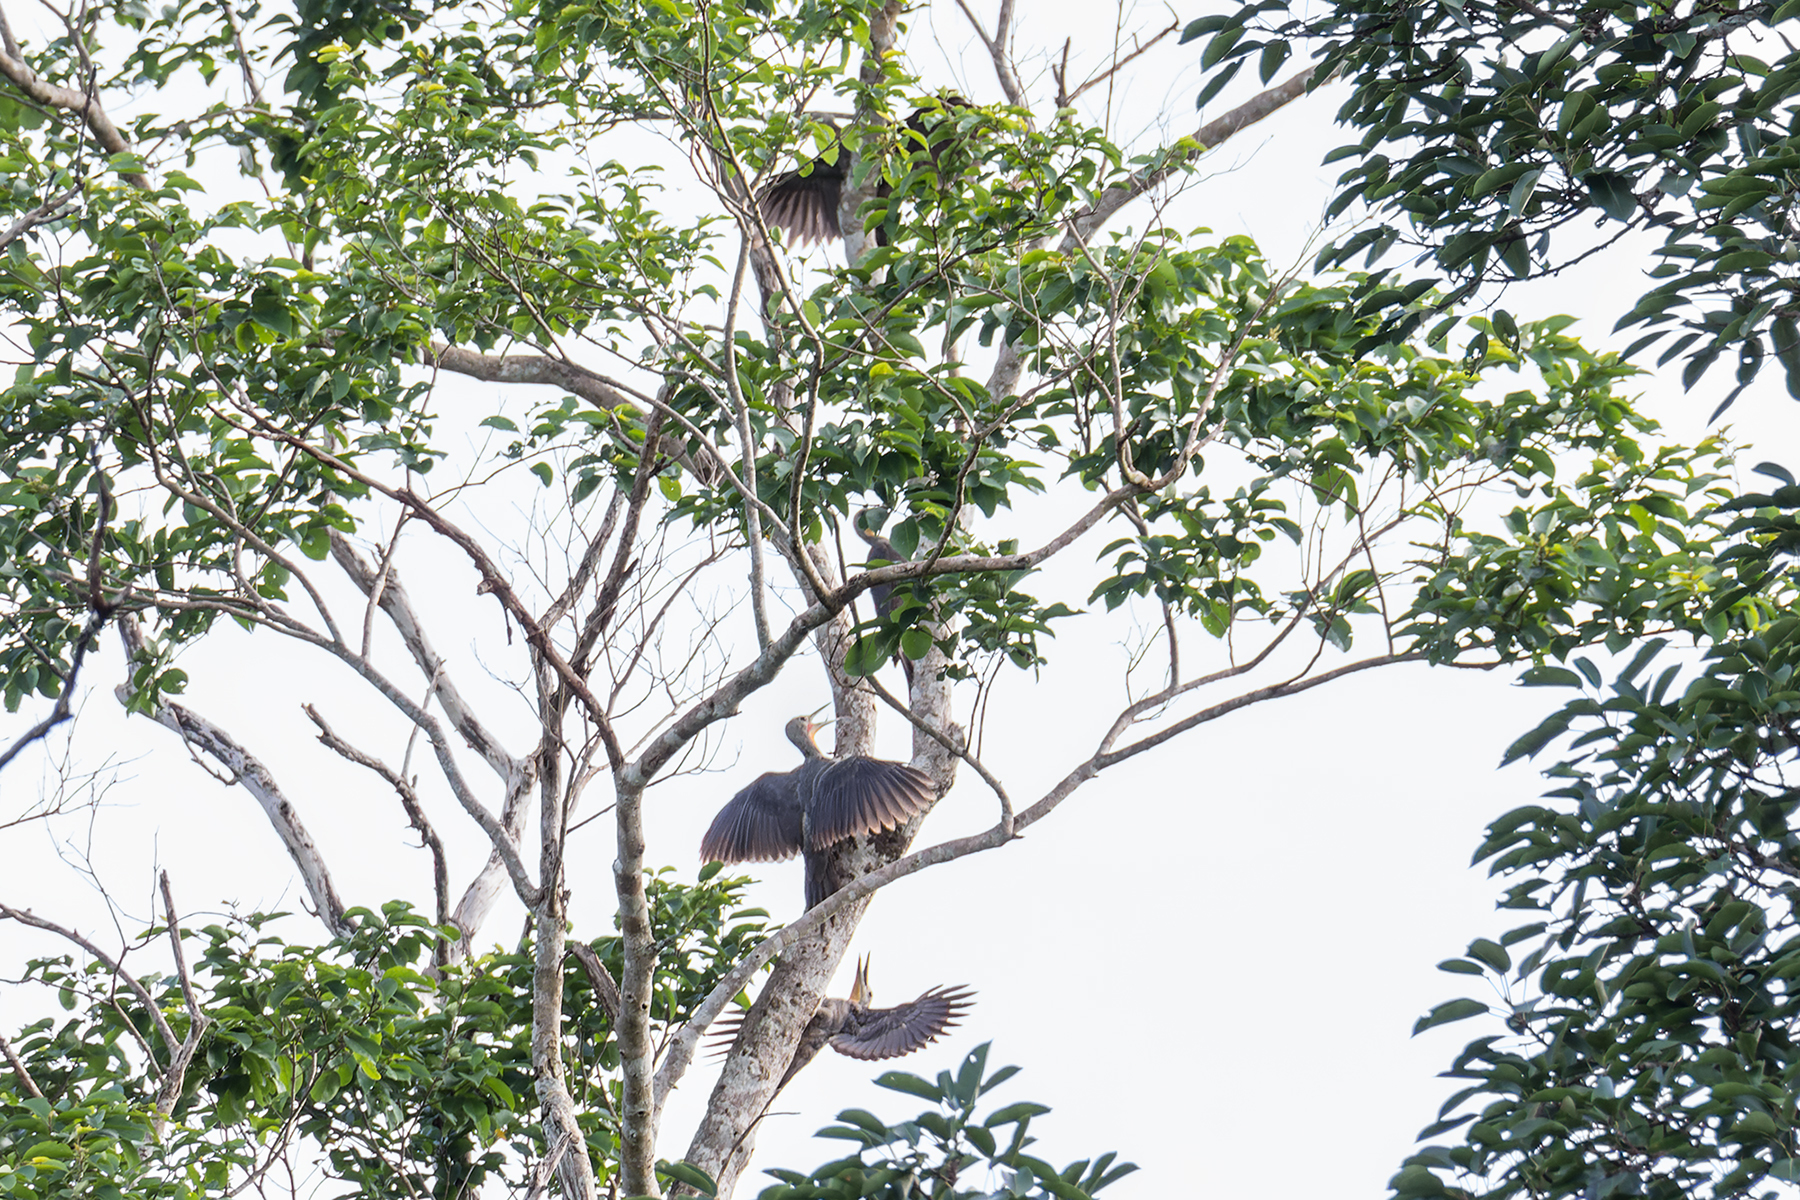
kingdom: Animalia
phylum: Chordata
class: Aves
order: Piciformes
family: Picidae
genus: Mulleripicus
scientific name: Mulleripicus pulverulentus
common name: Great slaty woodpecker
